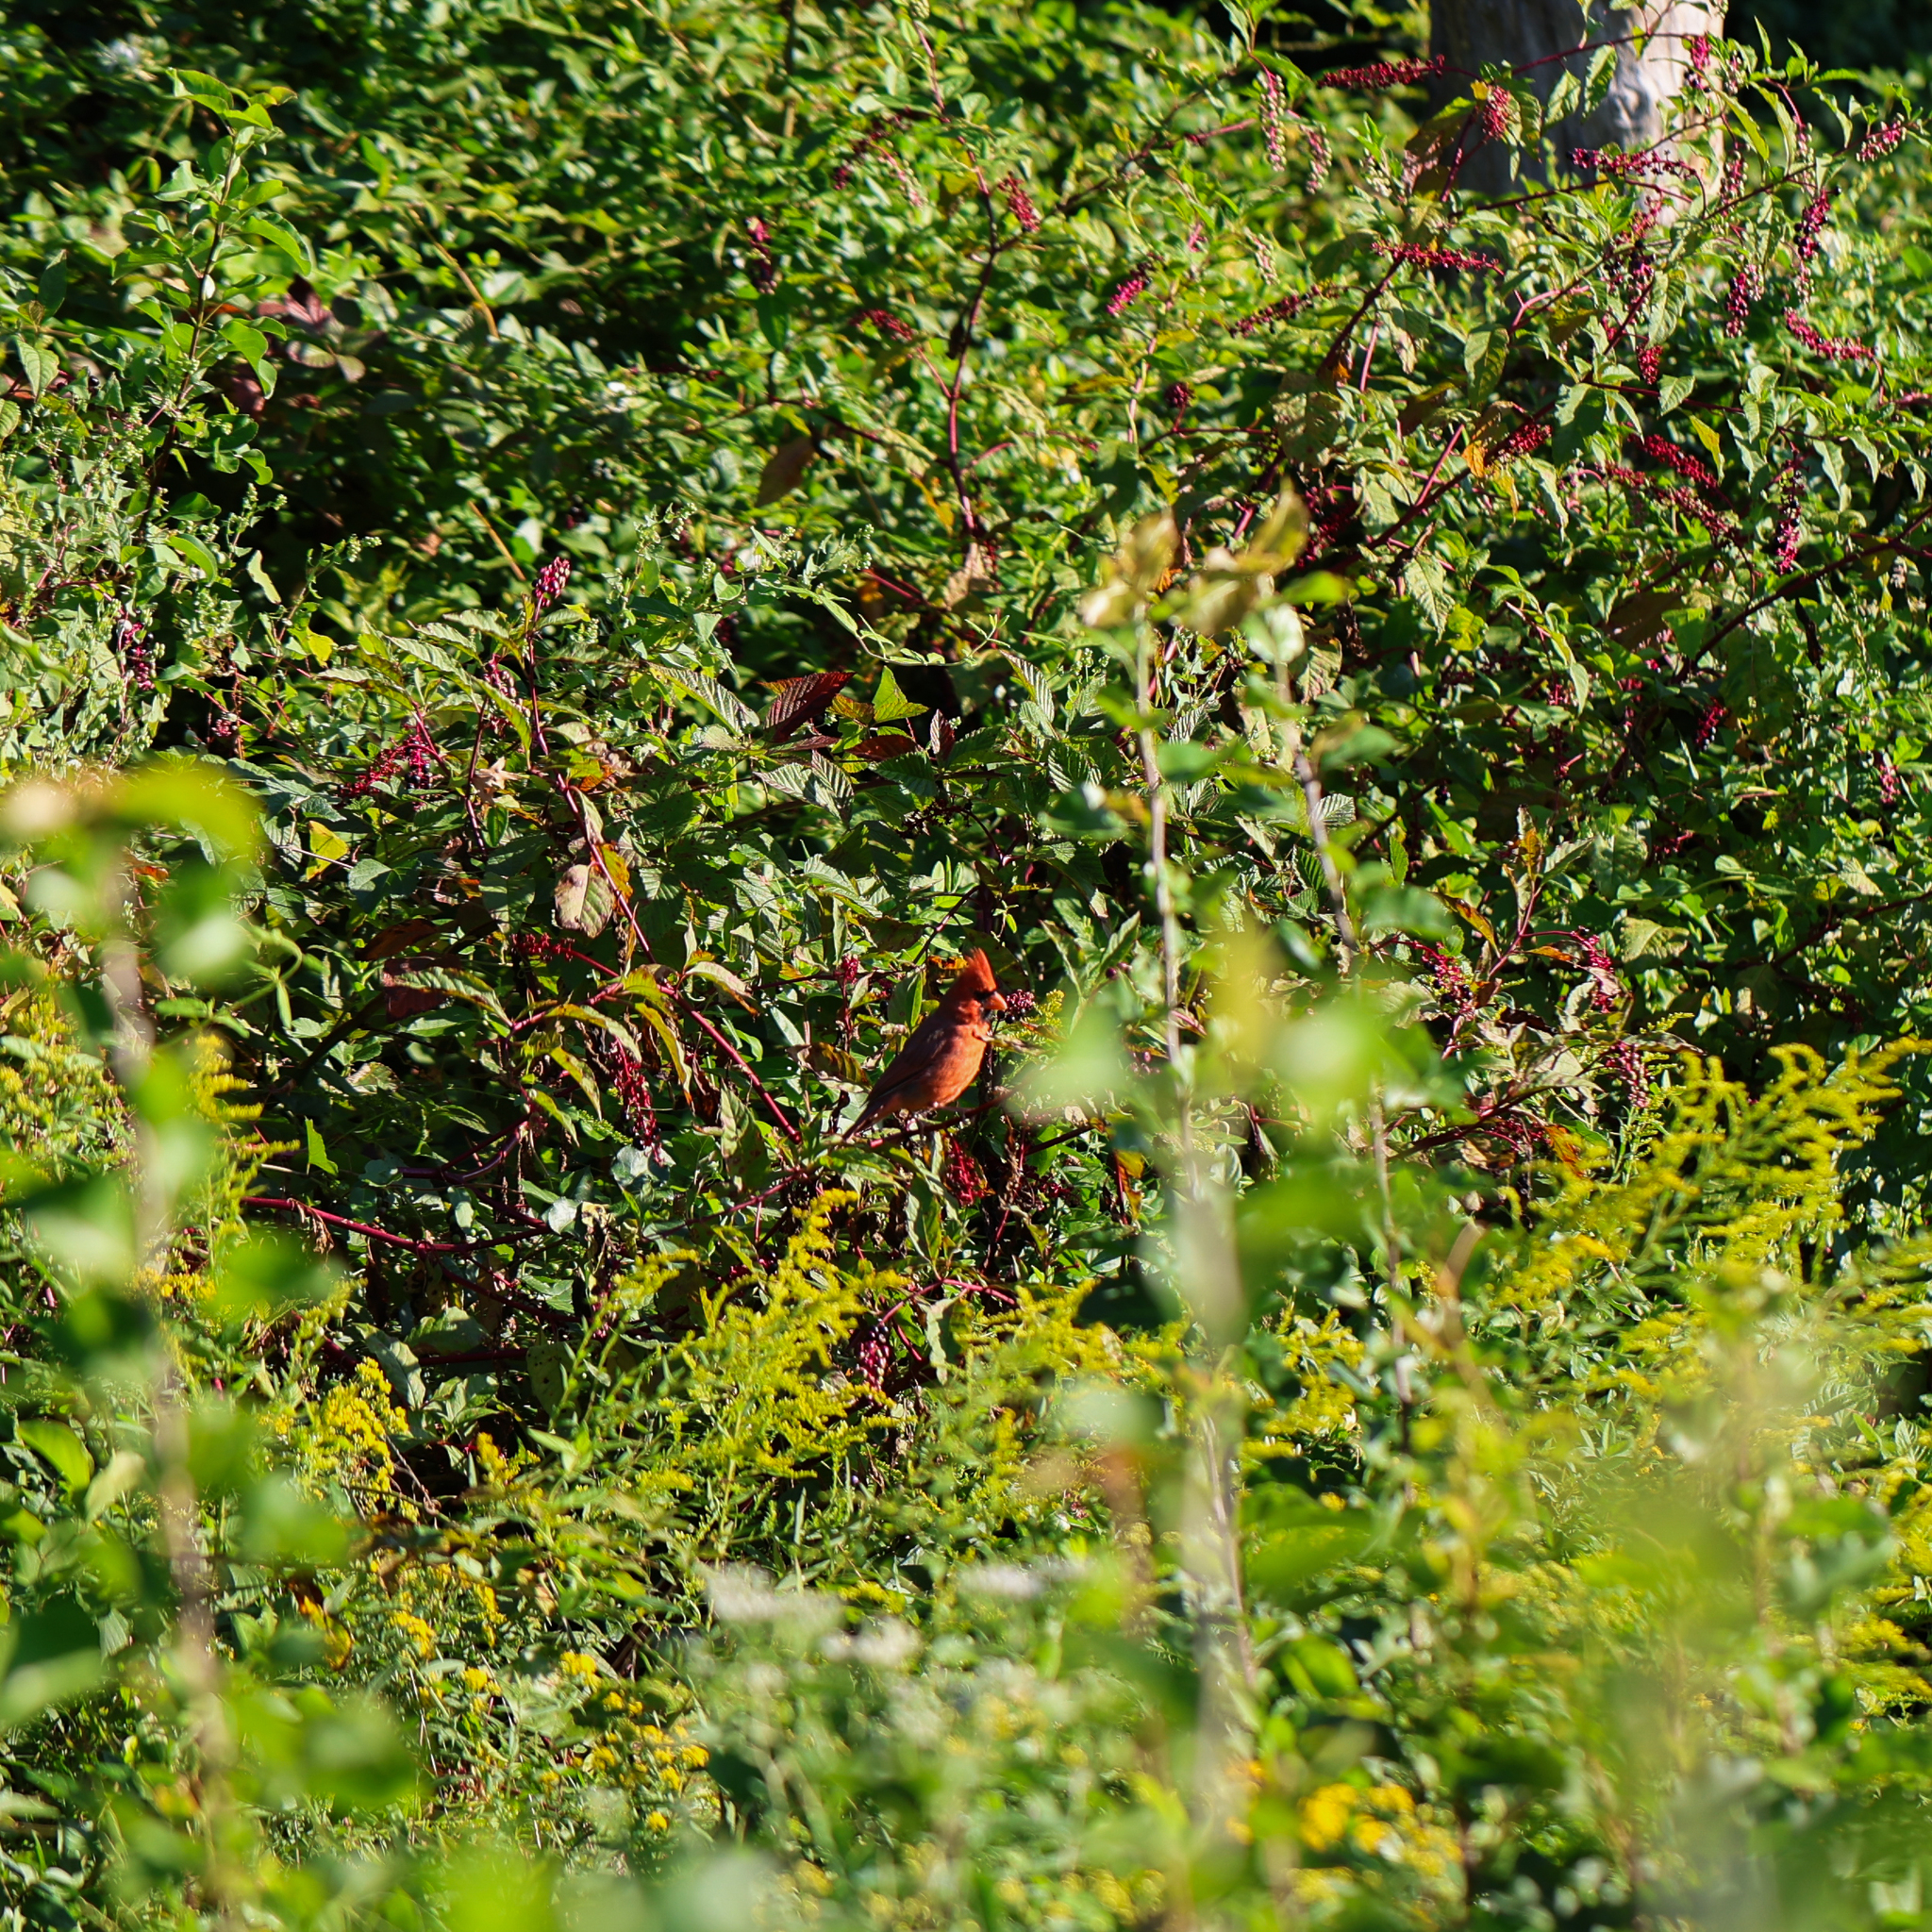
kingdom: Animalia
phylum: Chordata
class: Aves
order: Passeriformes
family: Cardinalidae
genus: Cardinalis
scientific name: Cardinalis cardinalis
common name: Northern cardinal
